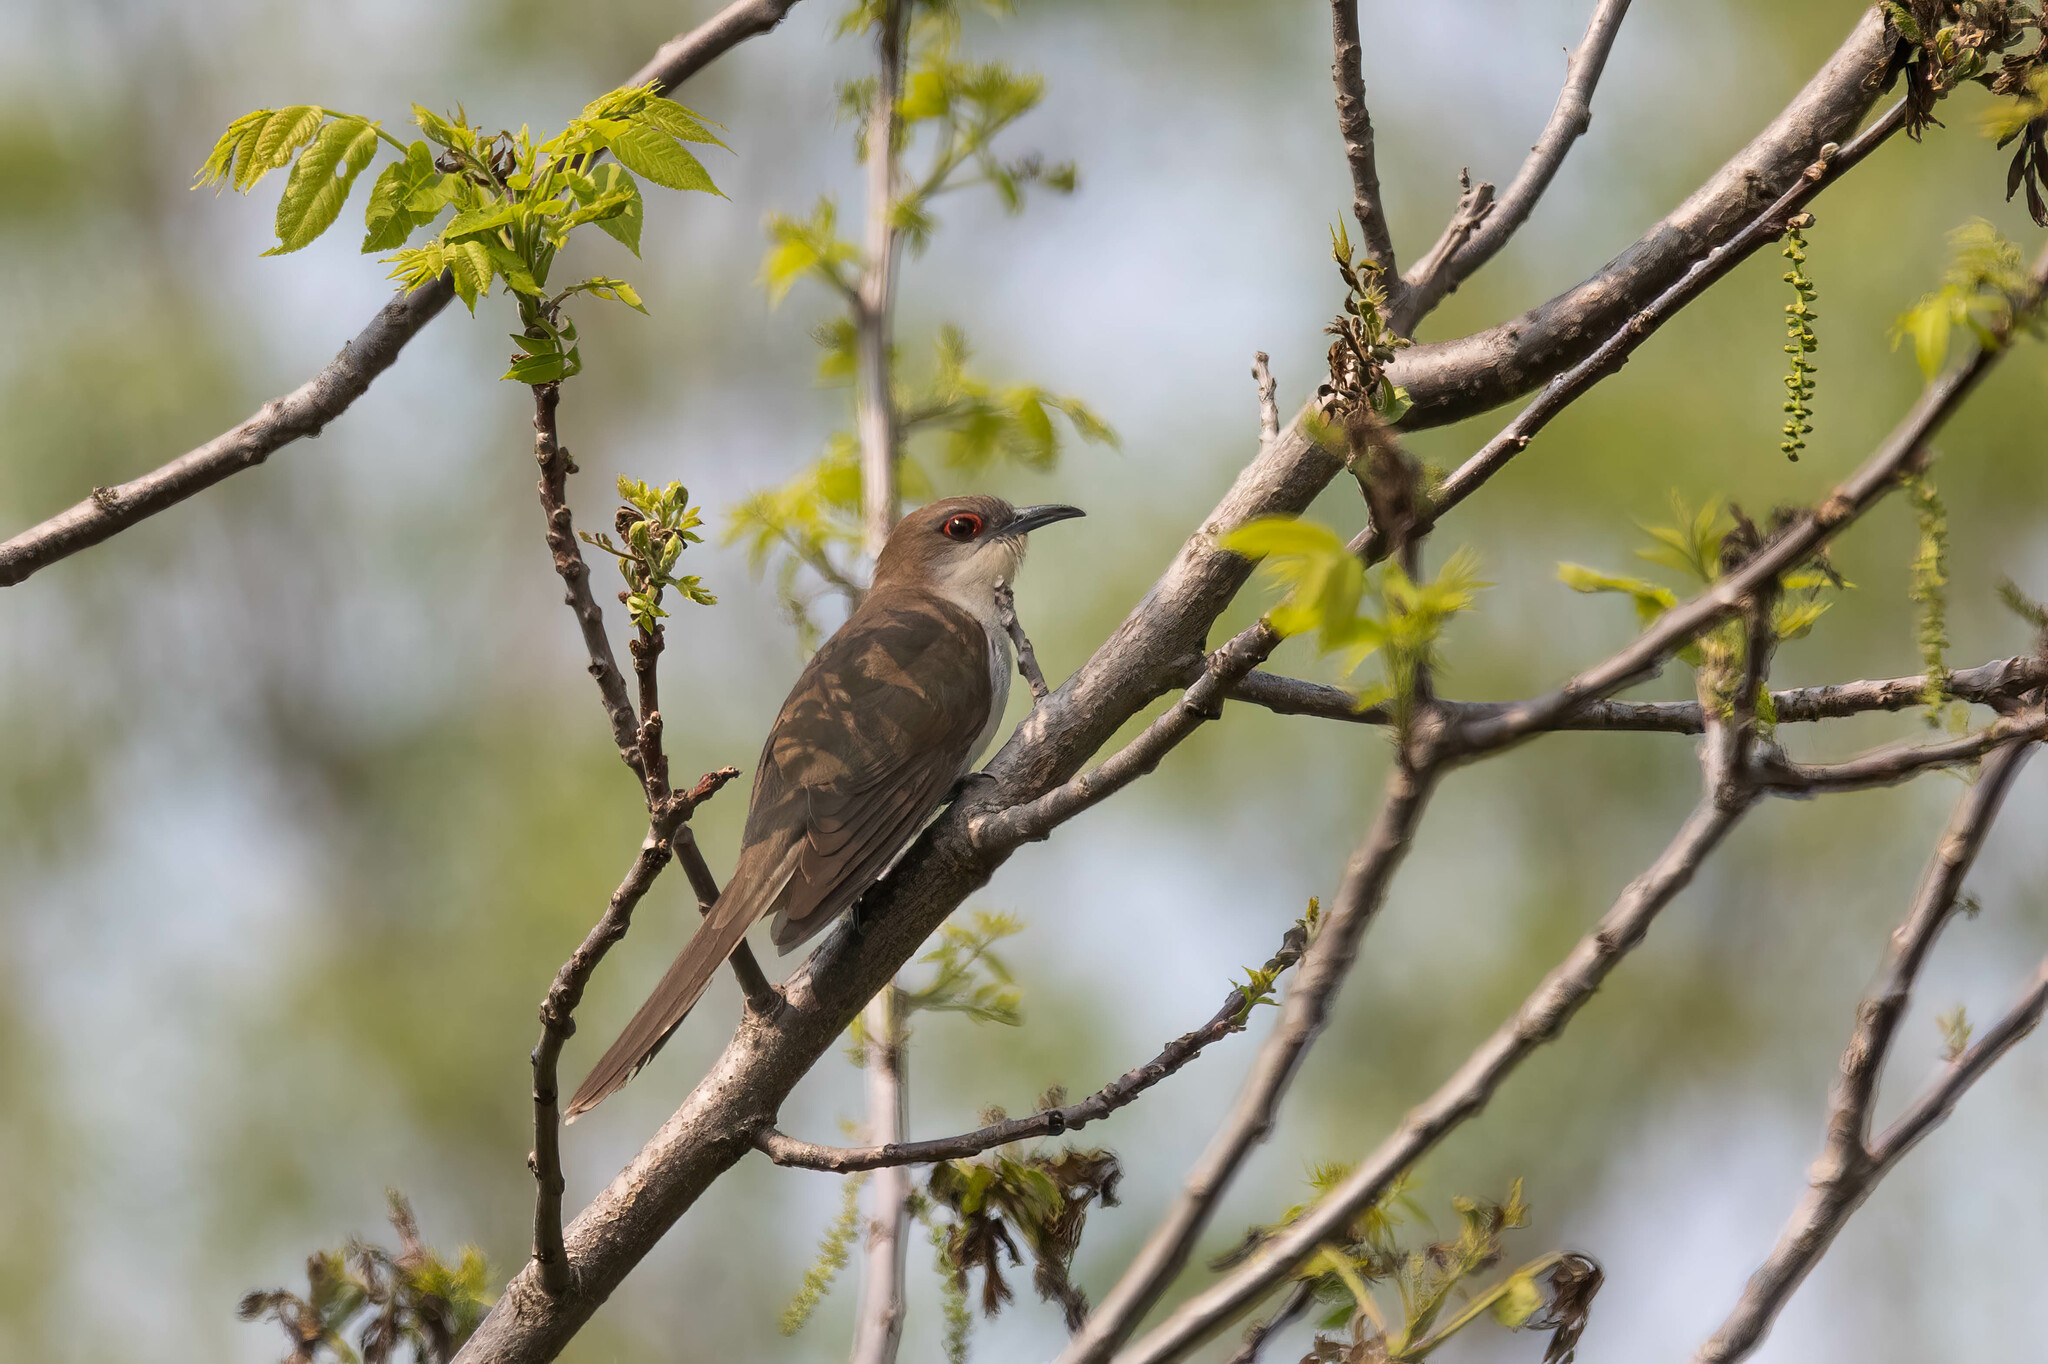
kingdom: Animalia
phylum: Chordata
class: Aves
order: Cuculiformes
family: Cuculidae
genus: Coccyzus
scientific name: Coccyzus erythropthalmus
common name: Black-billed cuckoo
